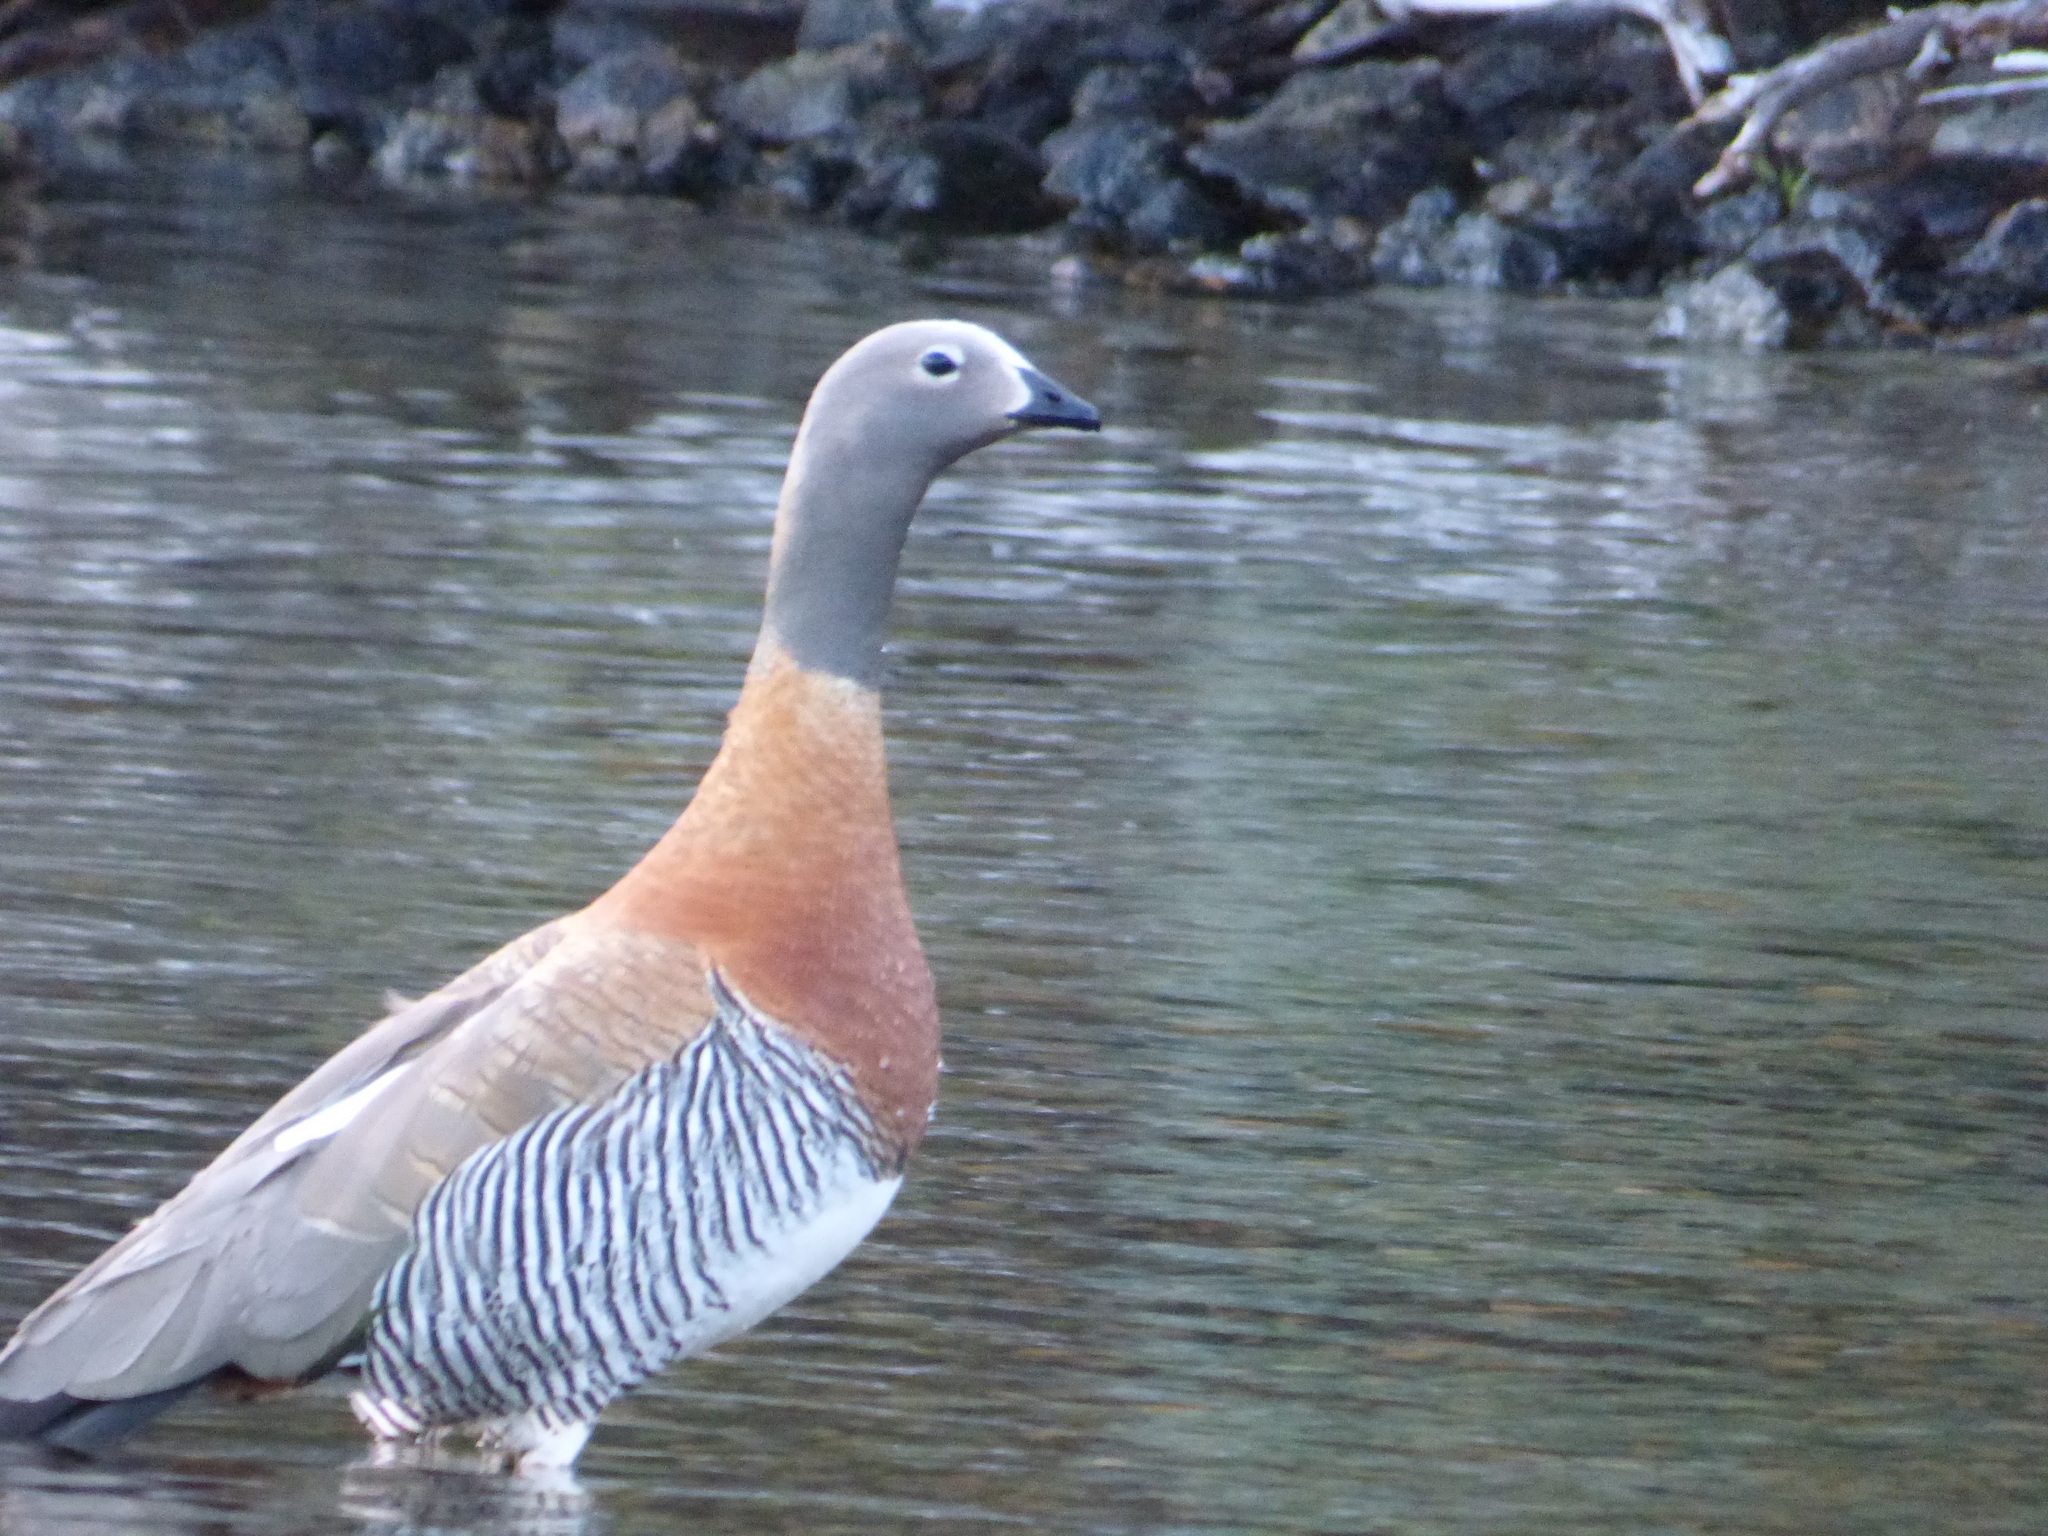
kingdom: Animalia
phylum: Chordata
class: Aves
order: Anseriformes
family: Anatidae
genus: Chloephaga
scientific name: Chloephaga poliocephala
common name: Ashy-headed goose
